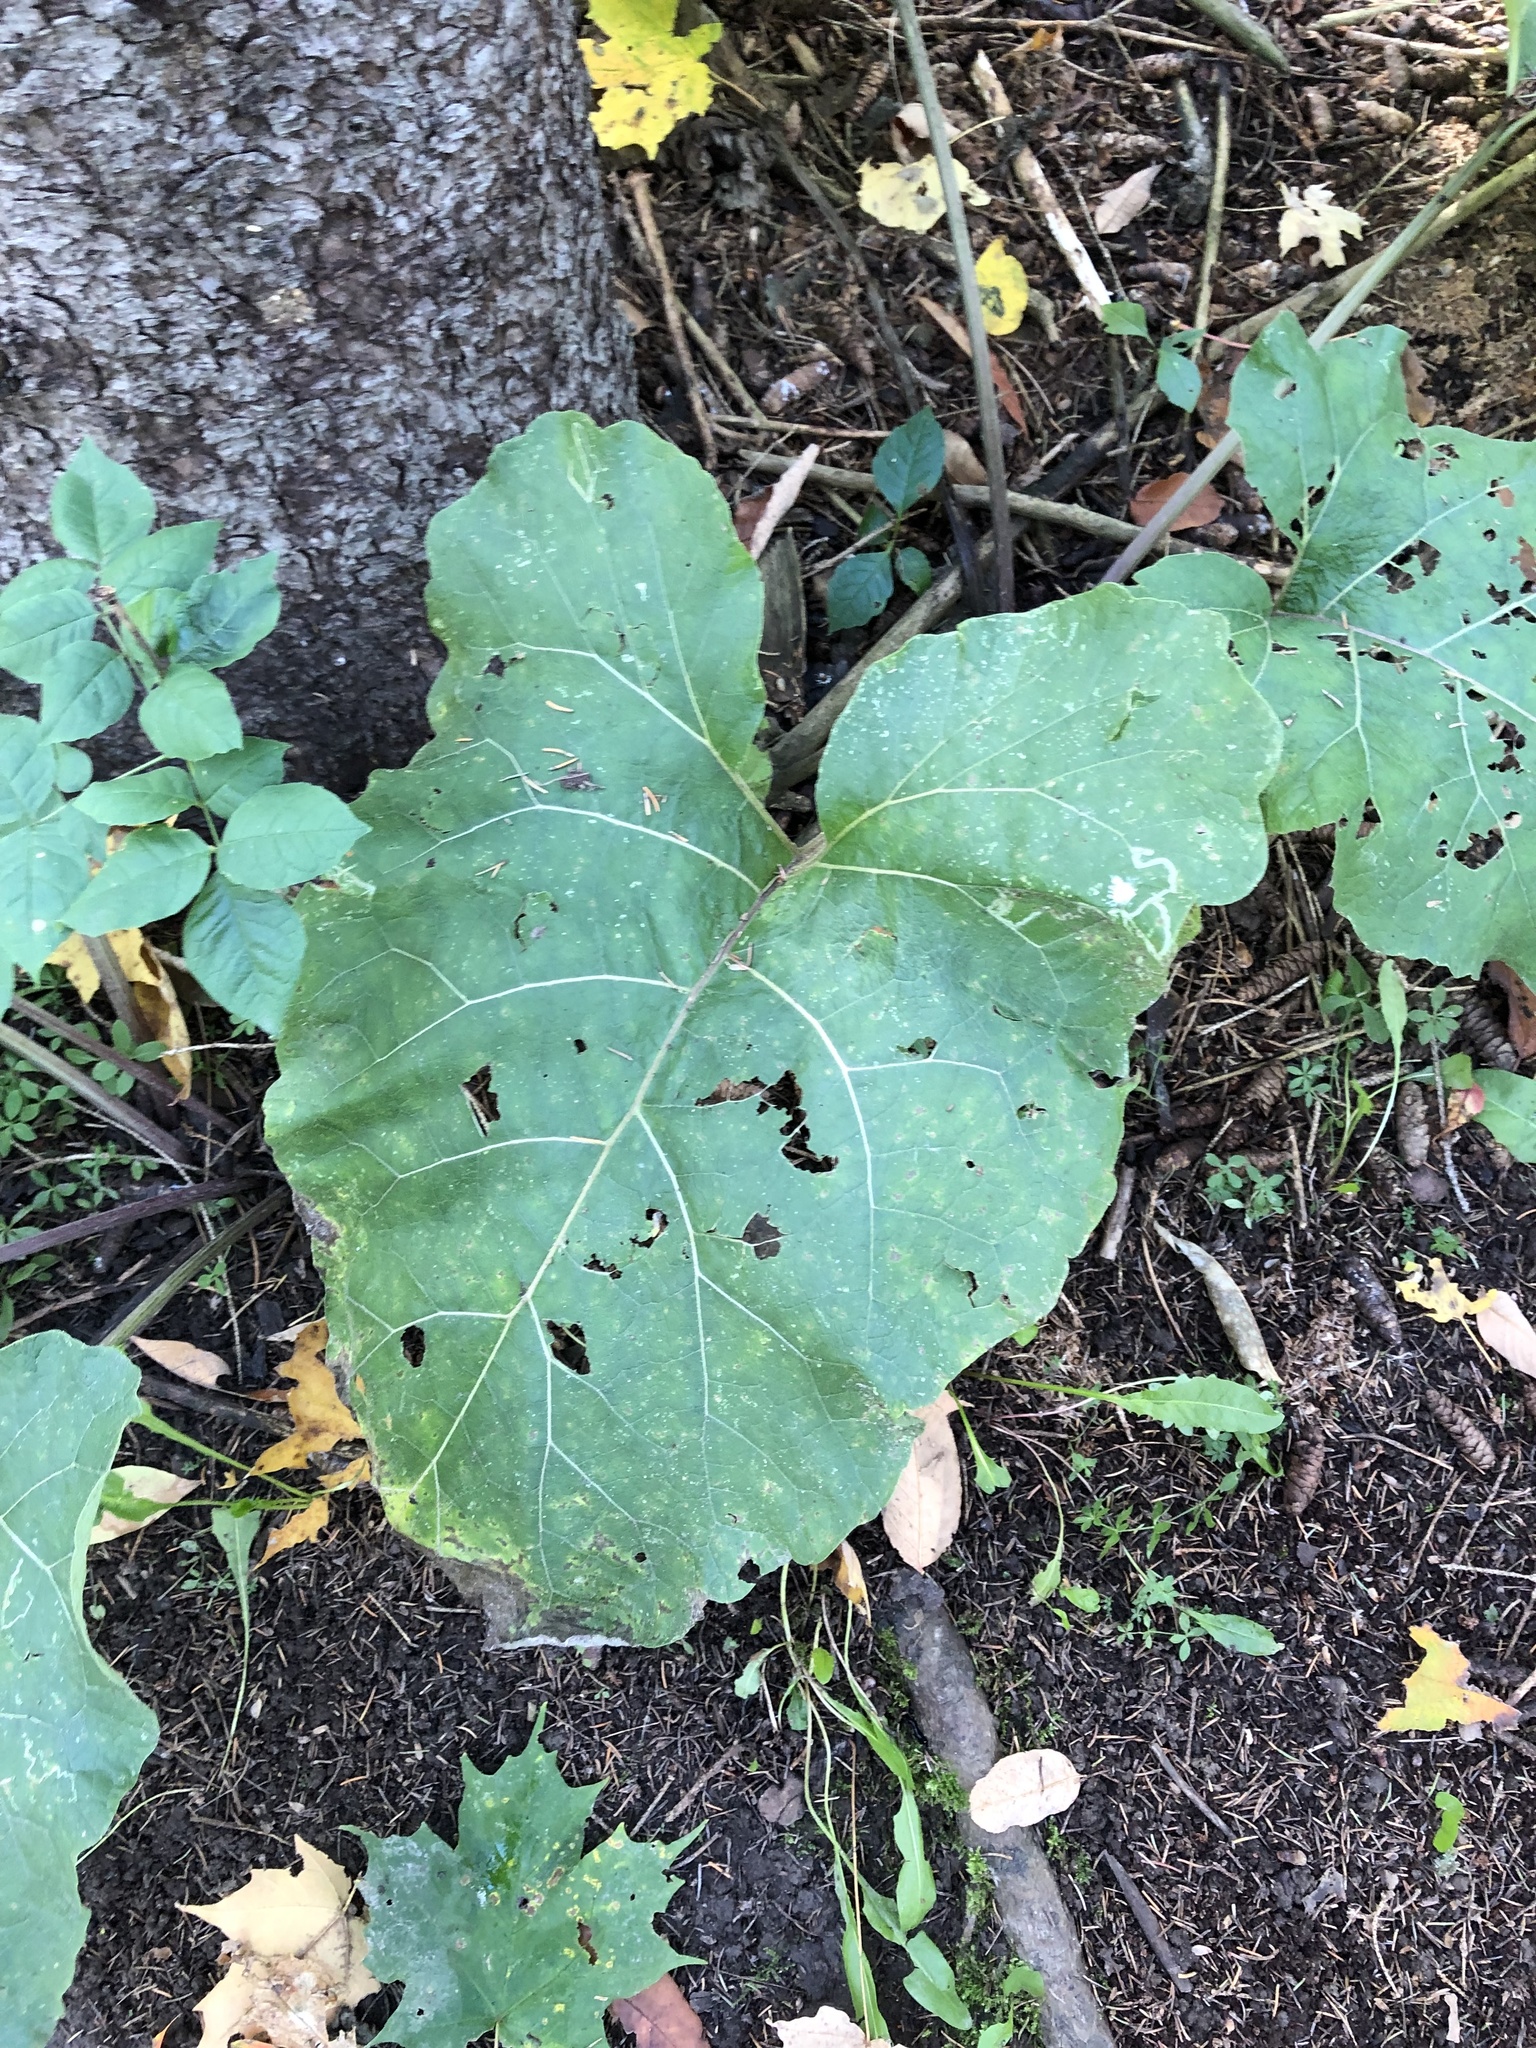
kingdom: Plantae
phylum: Tracheophyta
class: Magnoliopsida
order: Asterales
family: Asteraceae
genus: Arctium
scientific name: Arctium
